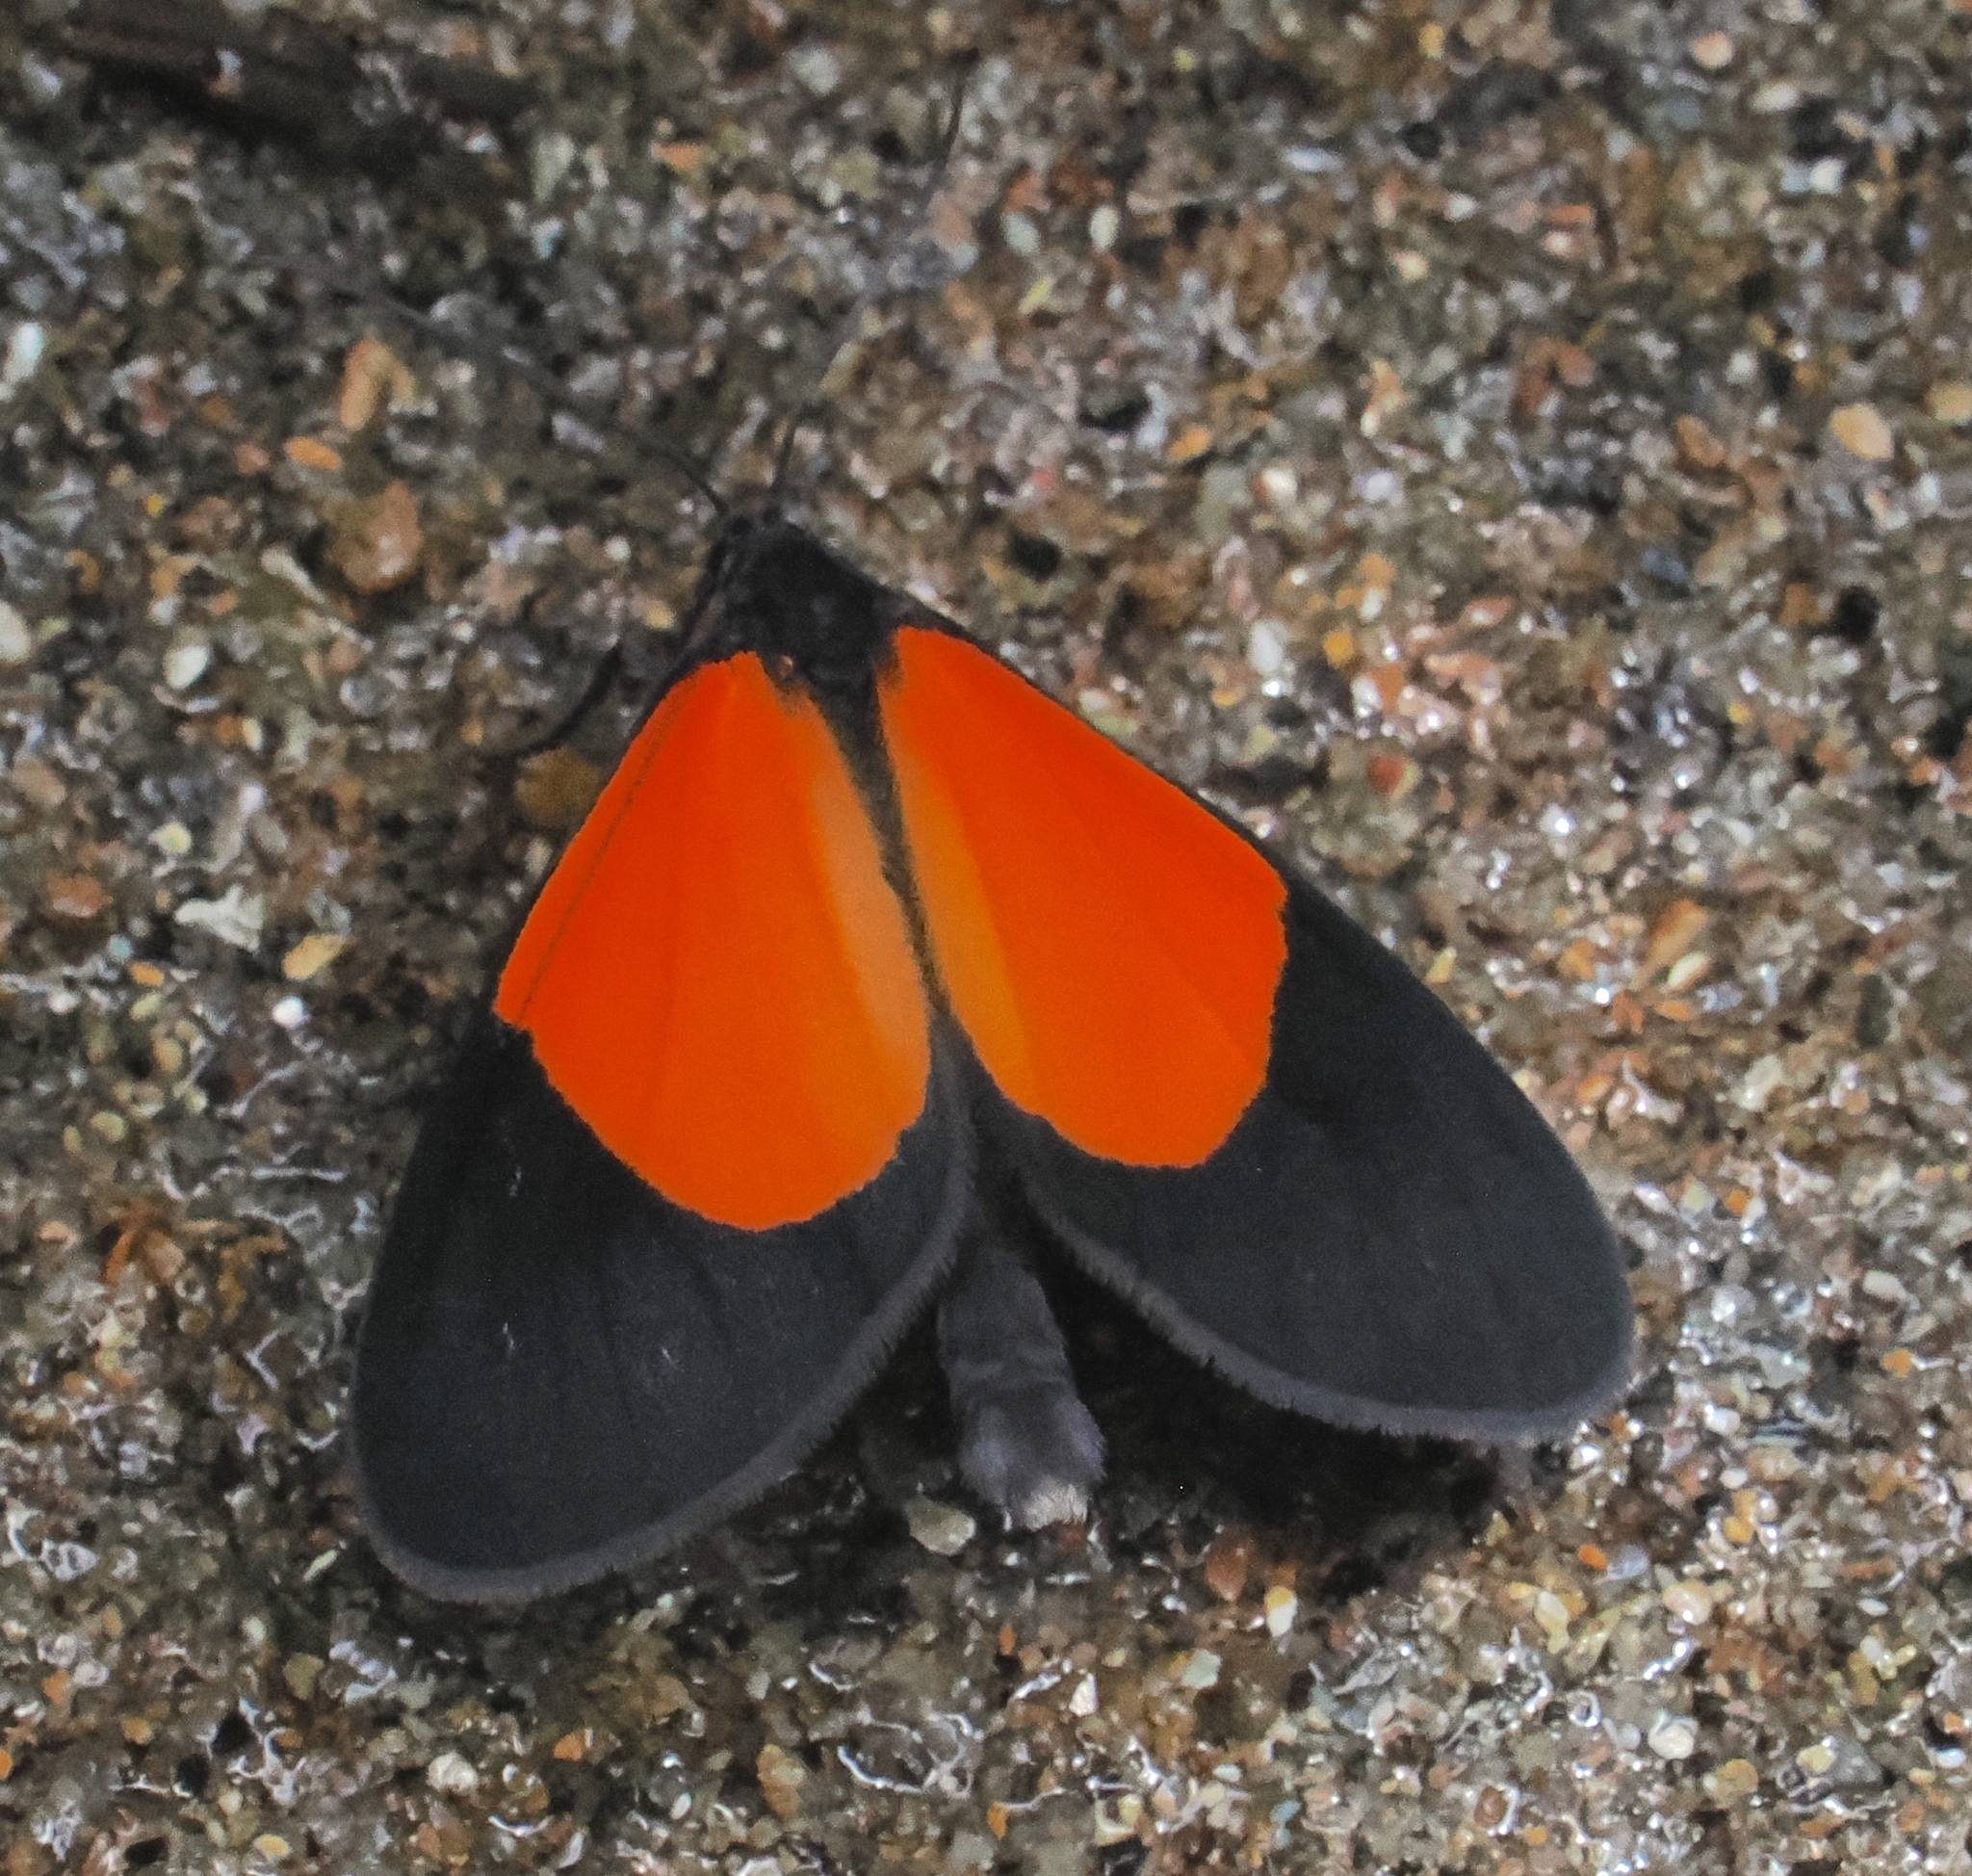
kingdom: Animalia
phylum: Arthropoda
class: Insecta
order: Lepidoptera
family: Geometridae
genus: Eudule
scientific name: Eudule fidentia
